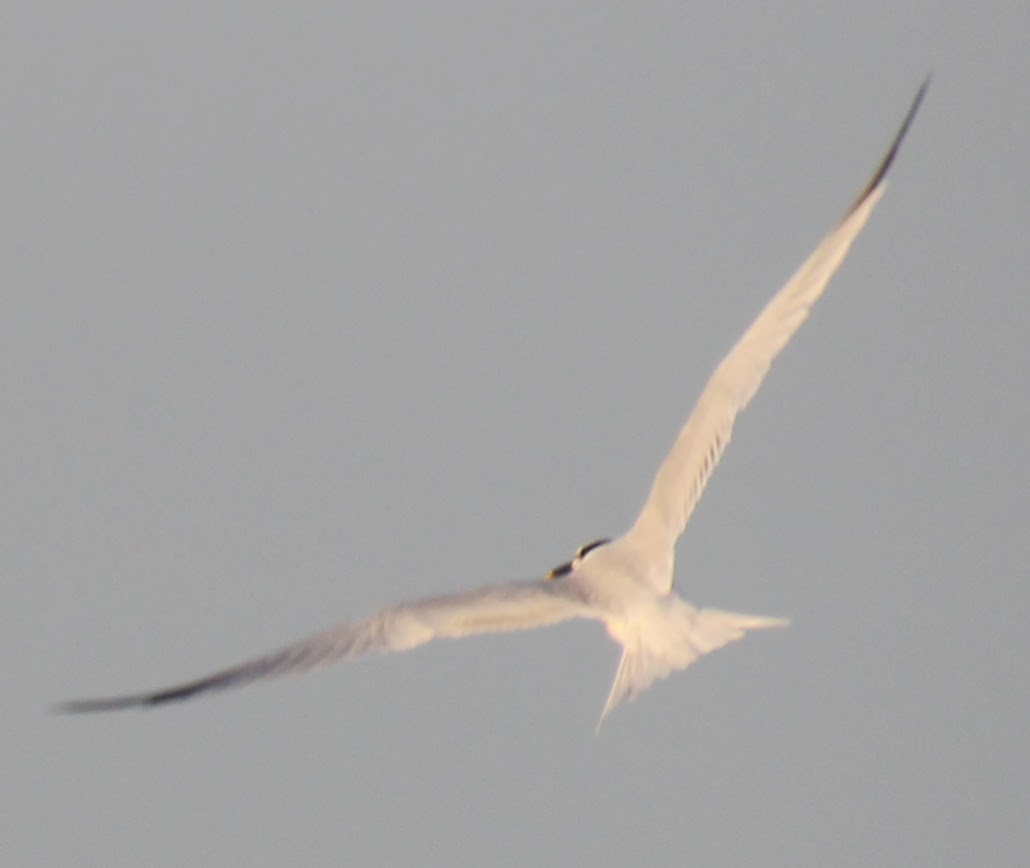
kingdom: Animalia
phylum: Chordata
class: Aves
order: Charadriiformes
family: Laridae
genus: Thalasseus
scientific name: Thalasseus sandvicensis
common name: Sandwich tern
